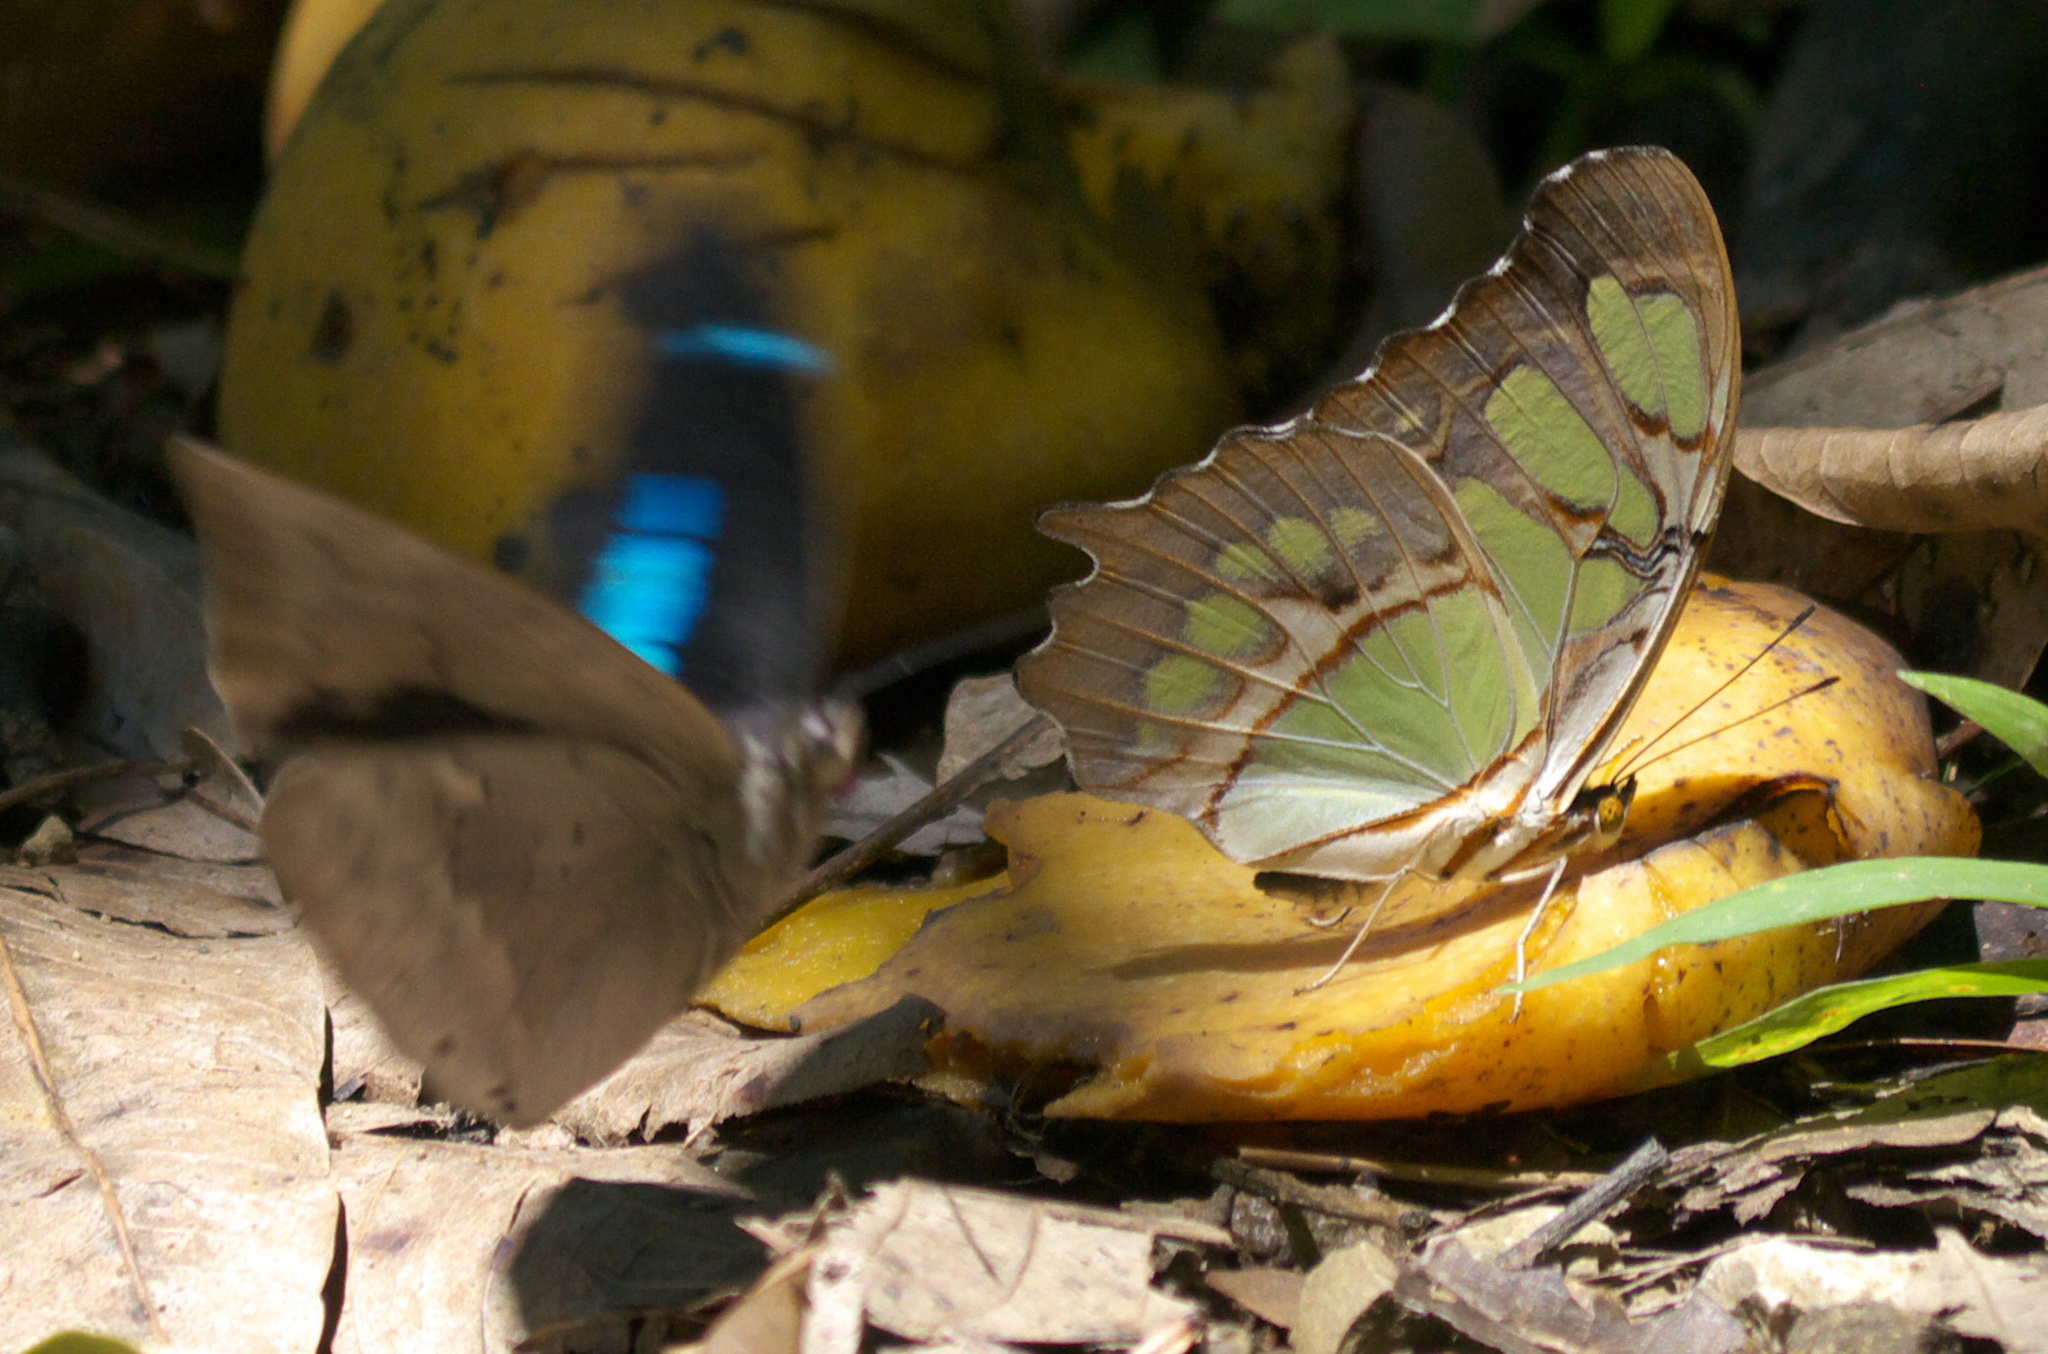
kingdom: Animalia
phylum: Arthropoda
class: Insecta
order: Lepidoptera
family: Nymphalidae
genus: Siproeta
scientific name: Siproeta stelenes
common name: Malachite
